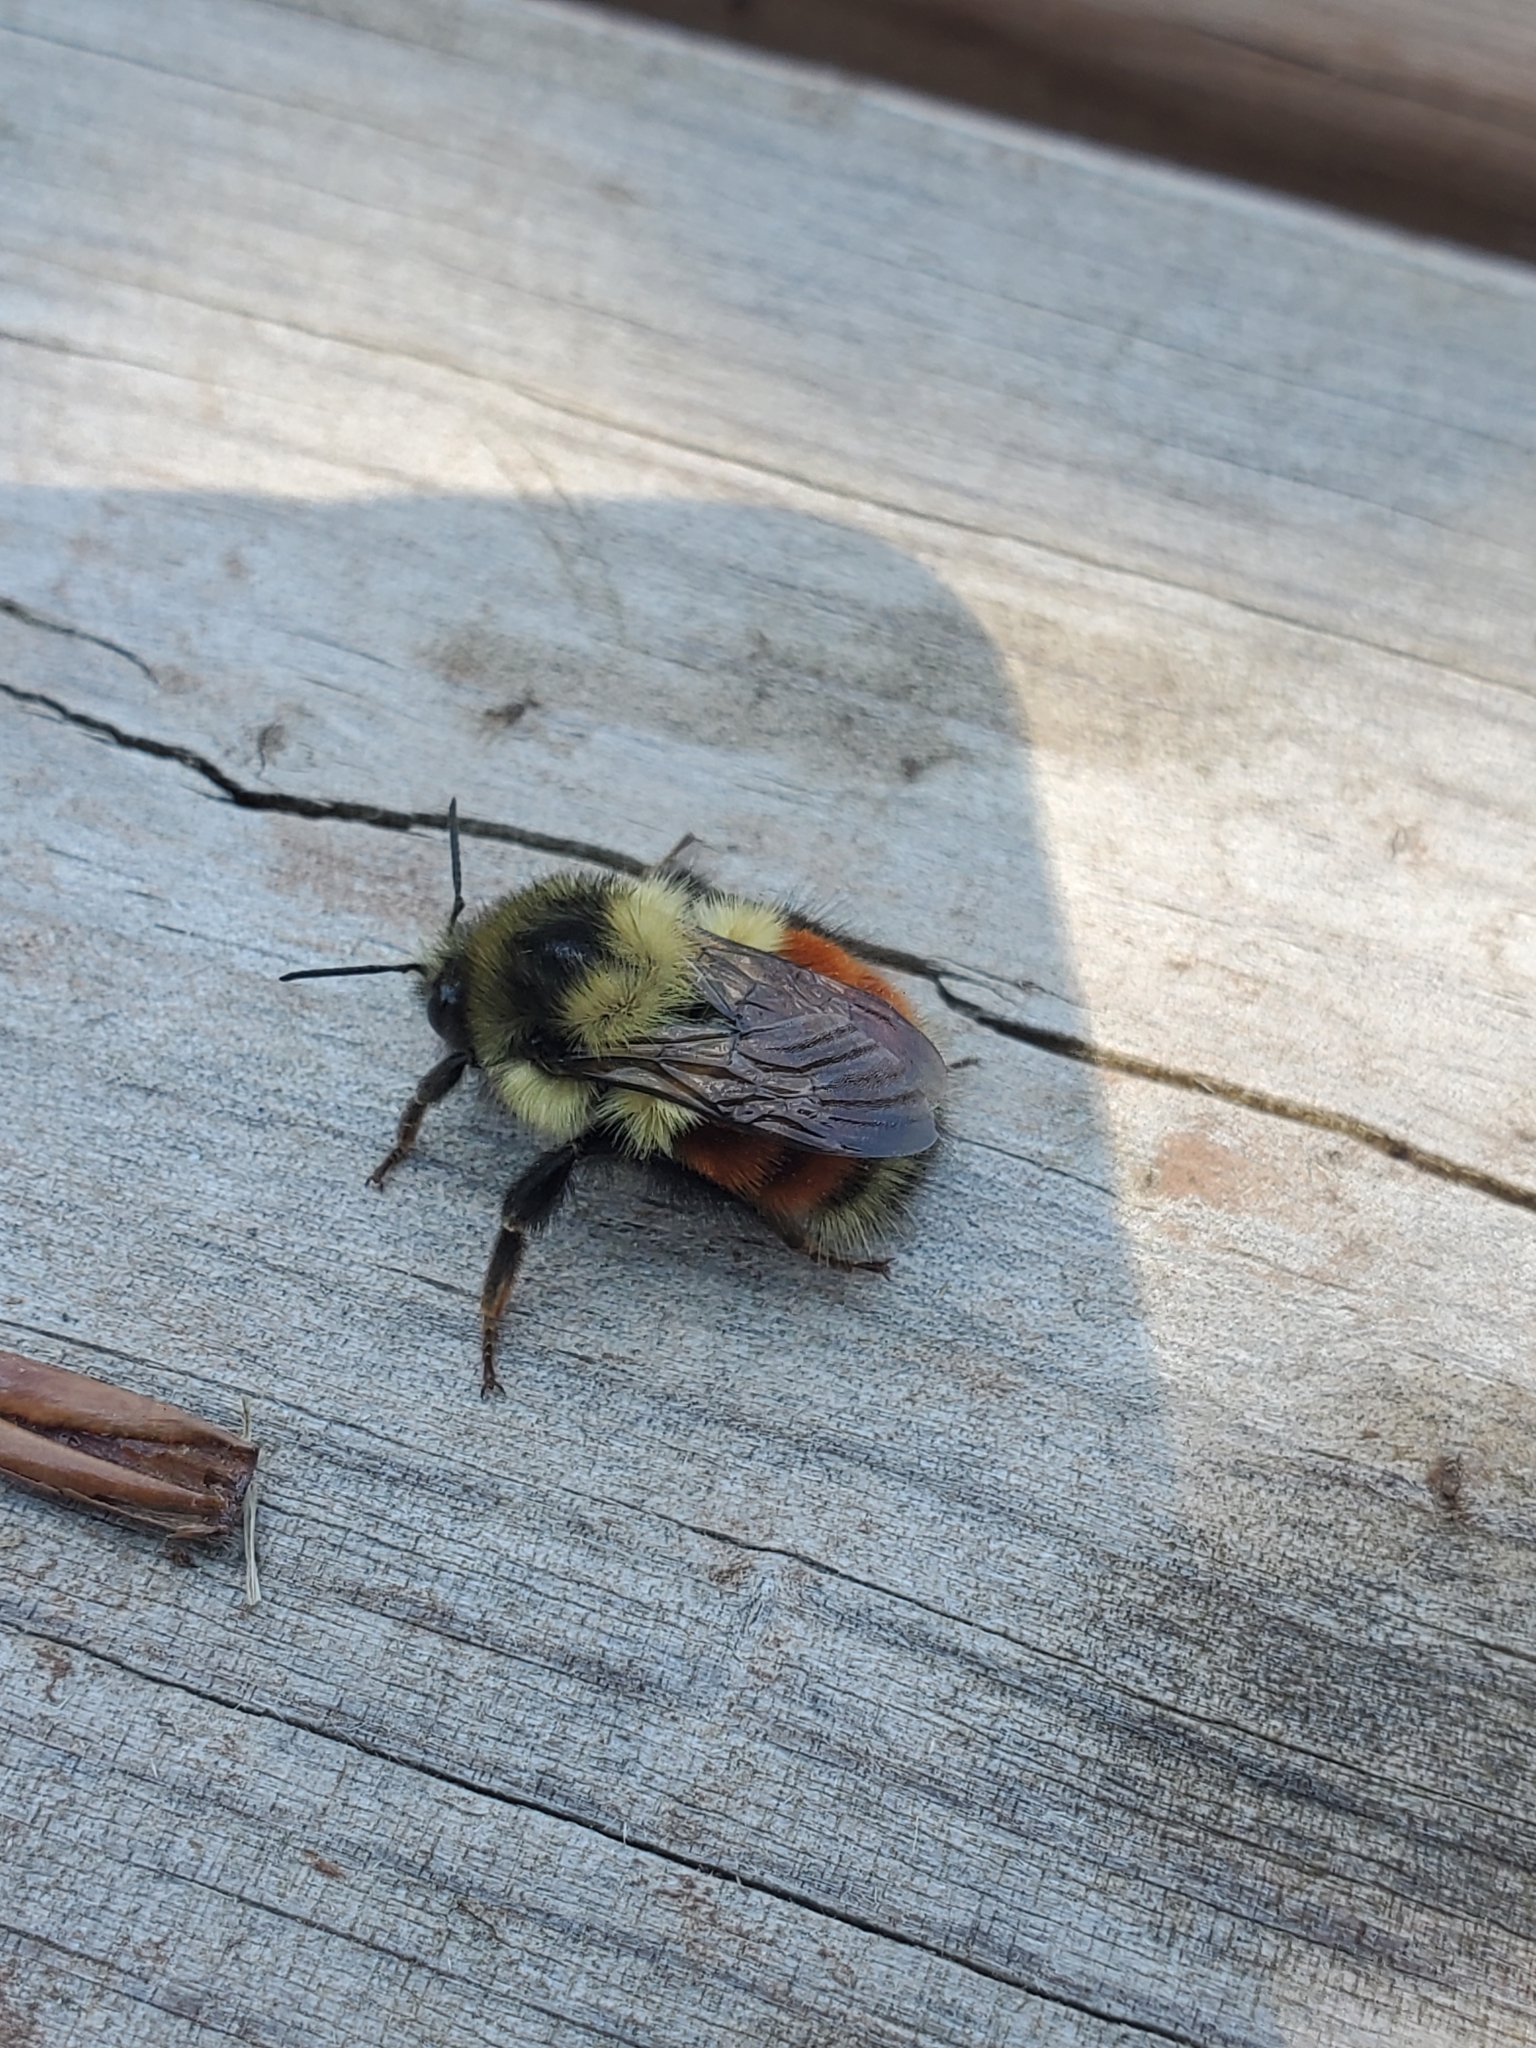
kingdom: Animalia
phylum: Arthropoda
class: Insecta
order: Hymenoptera
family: Apidae
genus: Bombus
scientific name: Bombus melanopygus
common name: Black tail bumble bee
